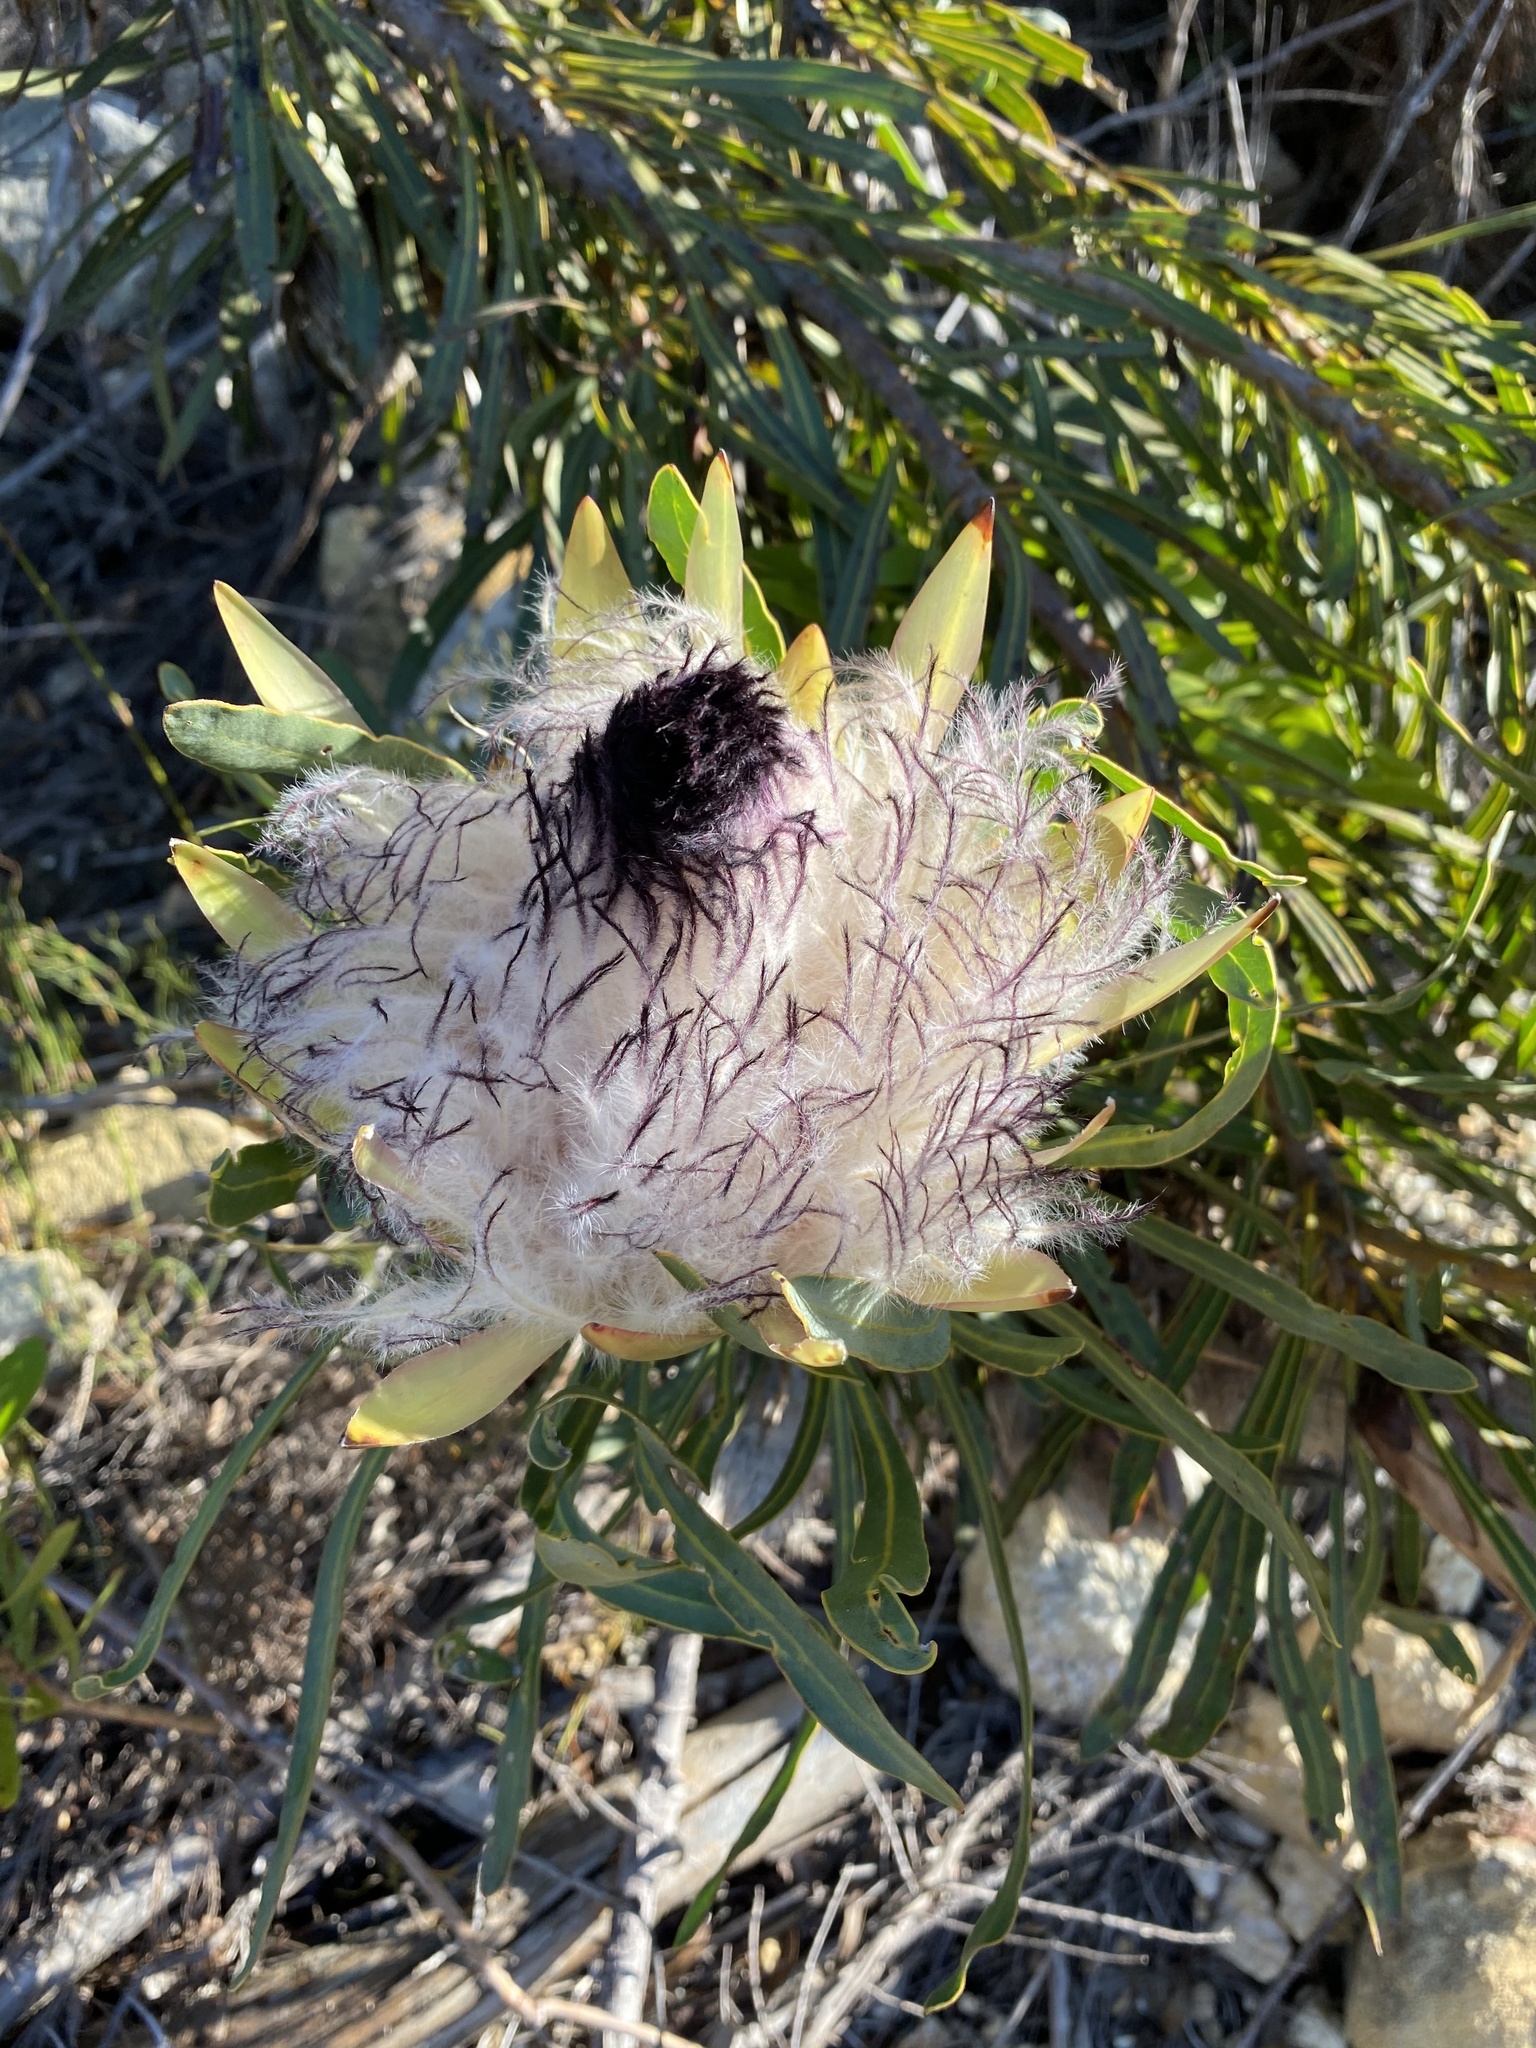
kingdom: Plantae
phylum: Tracheophyta
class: Magnoliopsida
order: Proteales
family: Proteaceae
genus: Protea
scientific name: Protea longifolia
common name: Long-leaf sugarbush
